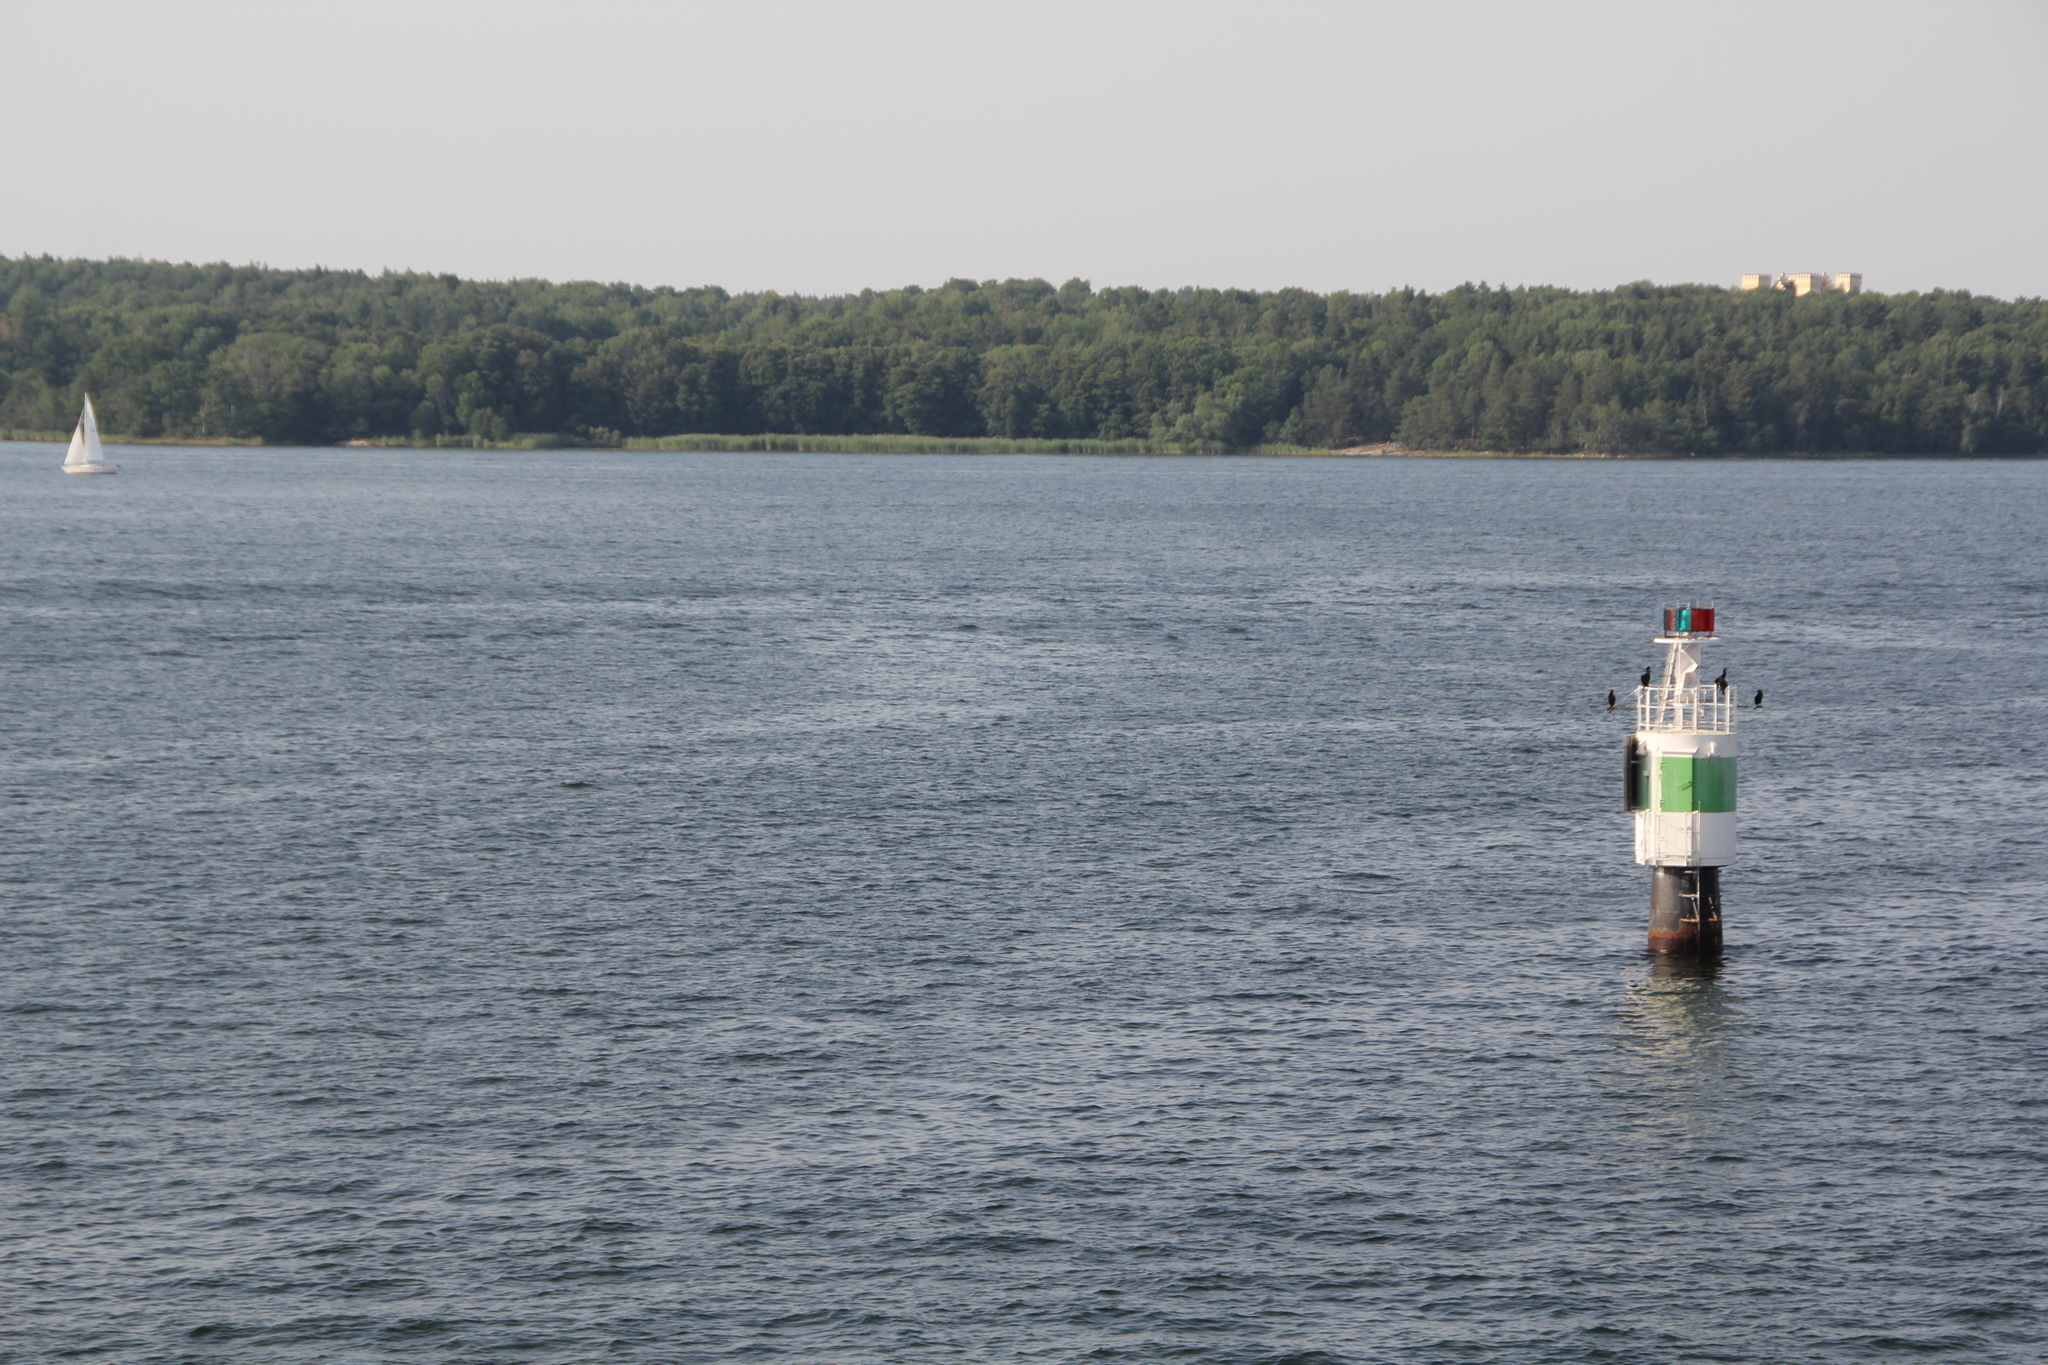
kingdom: Animalia
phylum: Chordata
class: Aves
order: Suliformes
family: Phalacrocoracidae
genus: Phalacrocorax
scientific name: Phalacrocorax carbo
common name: Great cormorant
